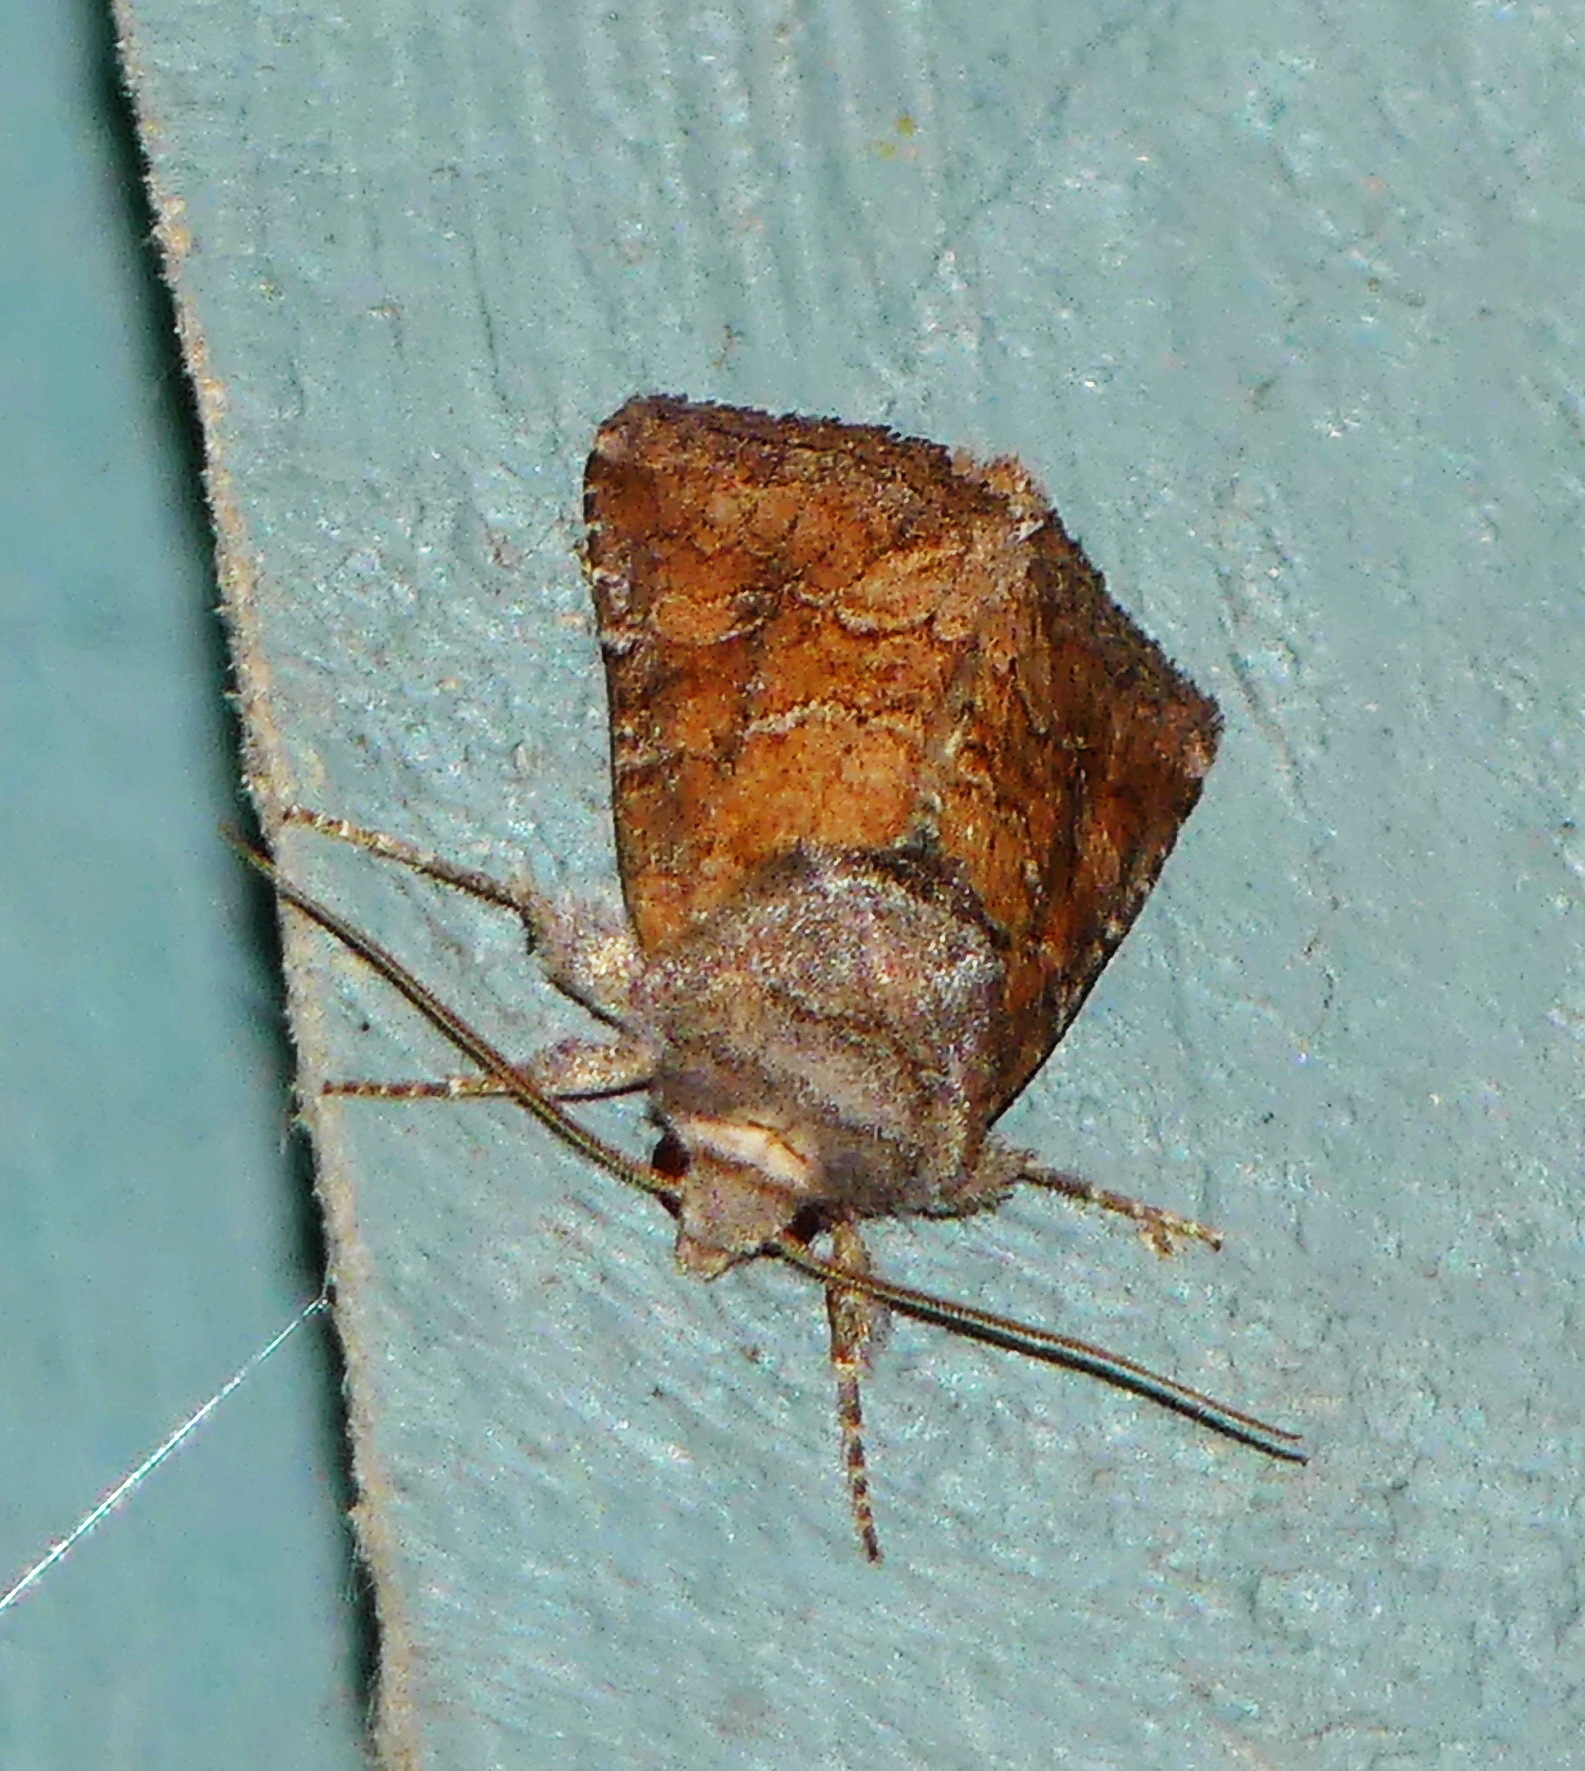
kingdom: Animalia
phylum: Arthropoda
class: Insecta
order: Lepidoptera
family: Noctuidae
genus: Loscopia
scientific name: Loscopia velata
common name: Veiled ear moth
